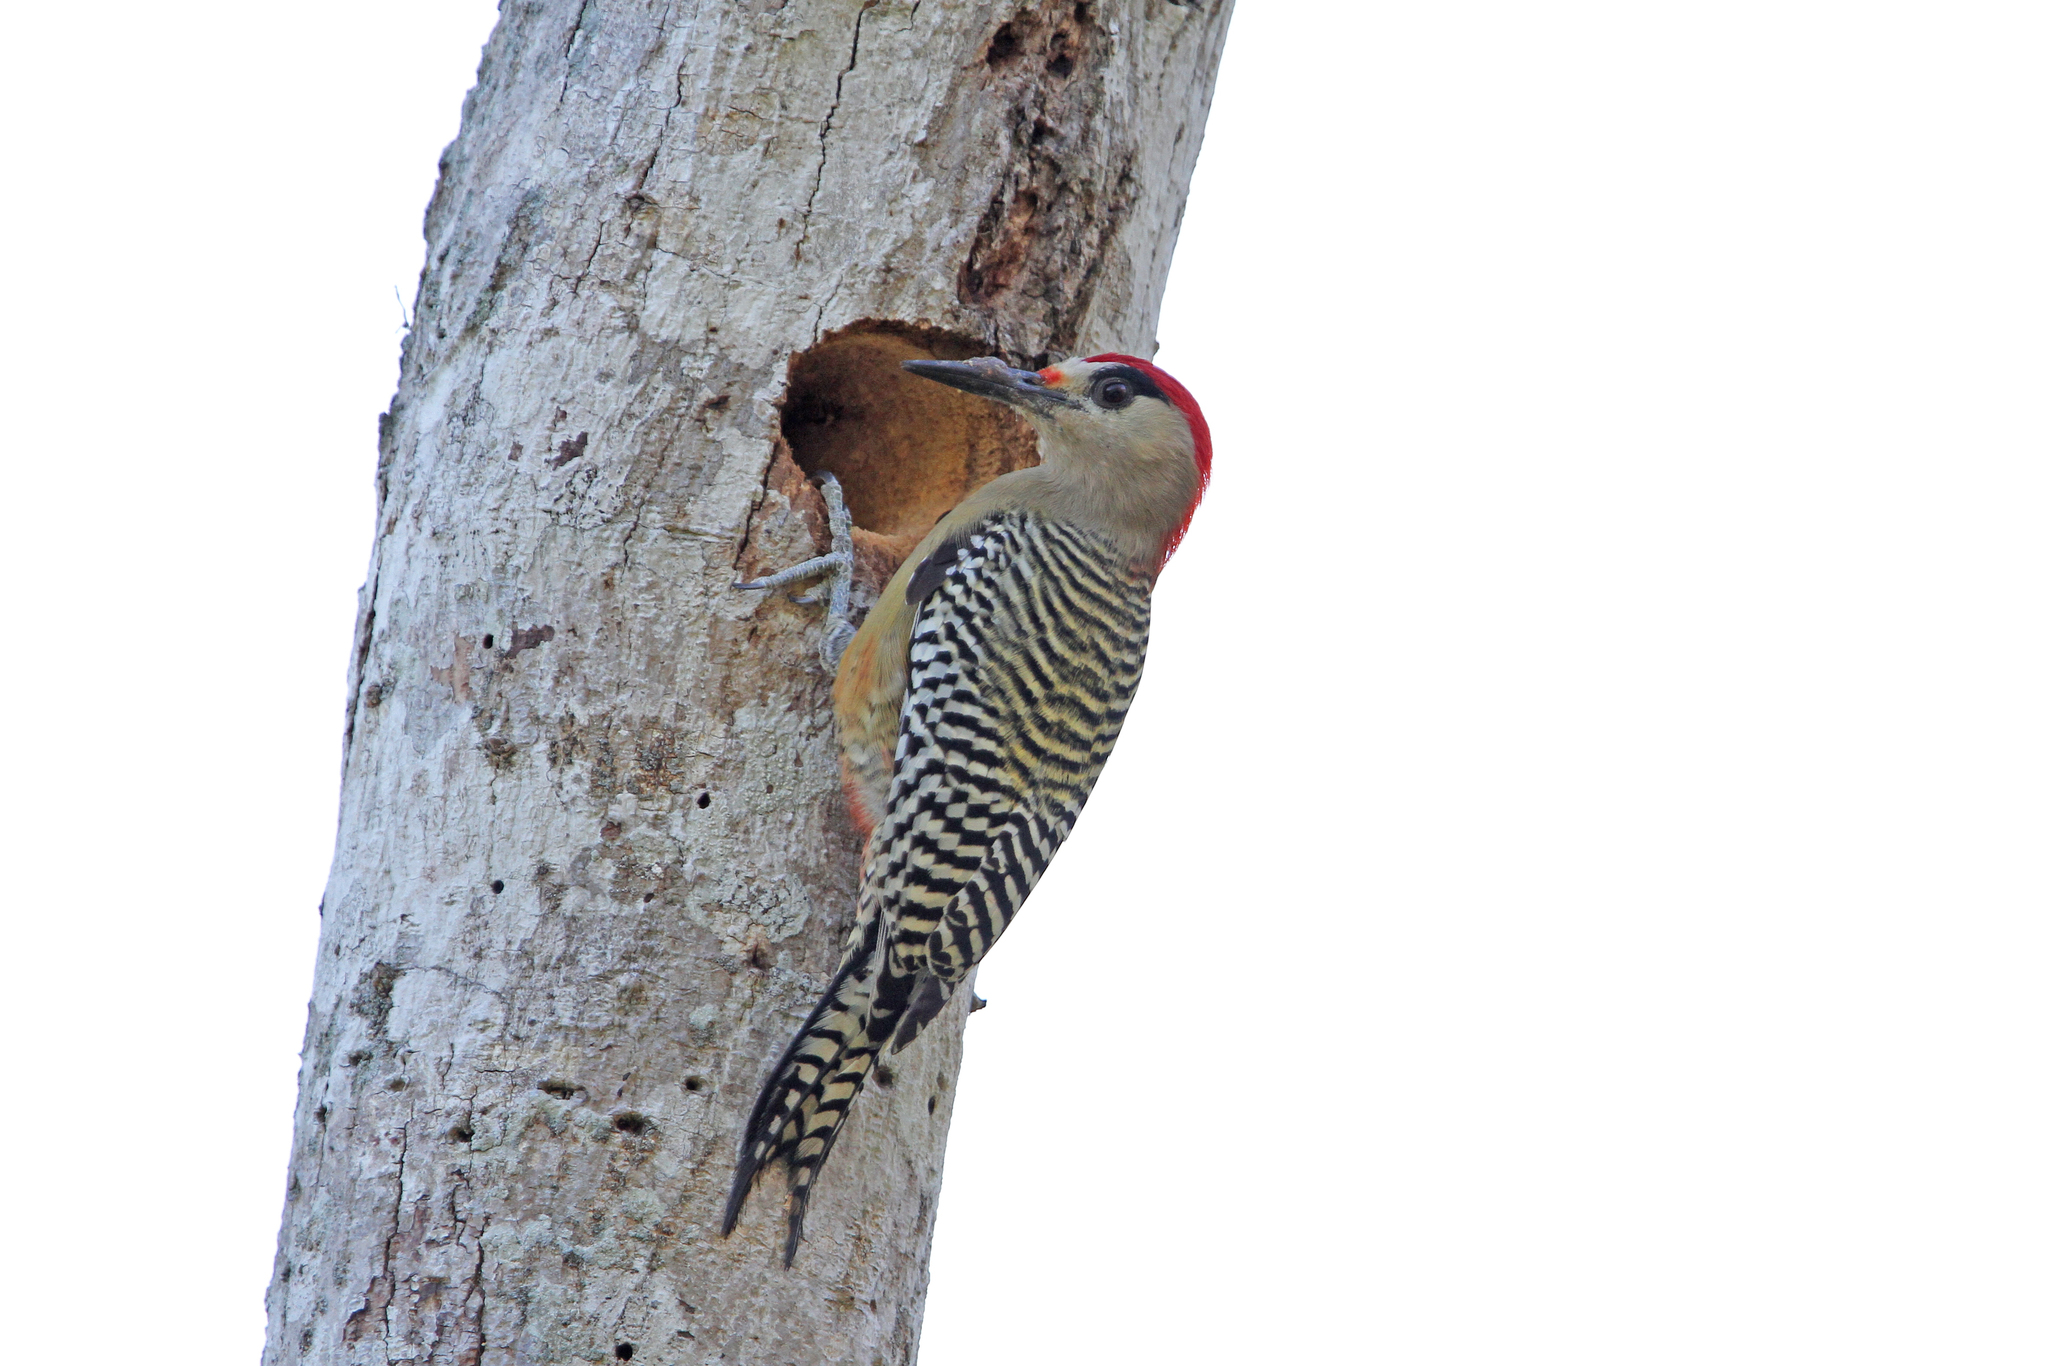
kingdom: Animalia
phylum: Chordata
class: Aves
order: Piciformes
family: Picidae
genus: Melanerpes
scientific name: Melanerpes superciliaris
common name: West indian woodpecker
